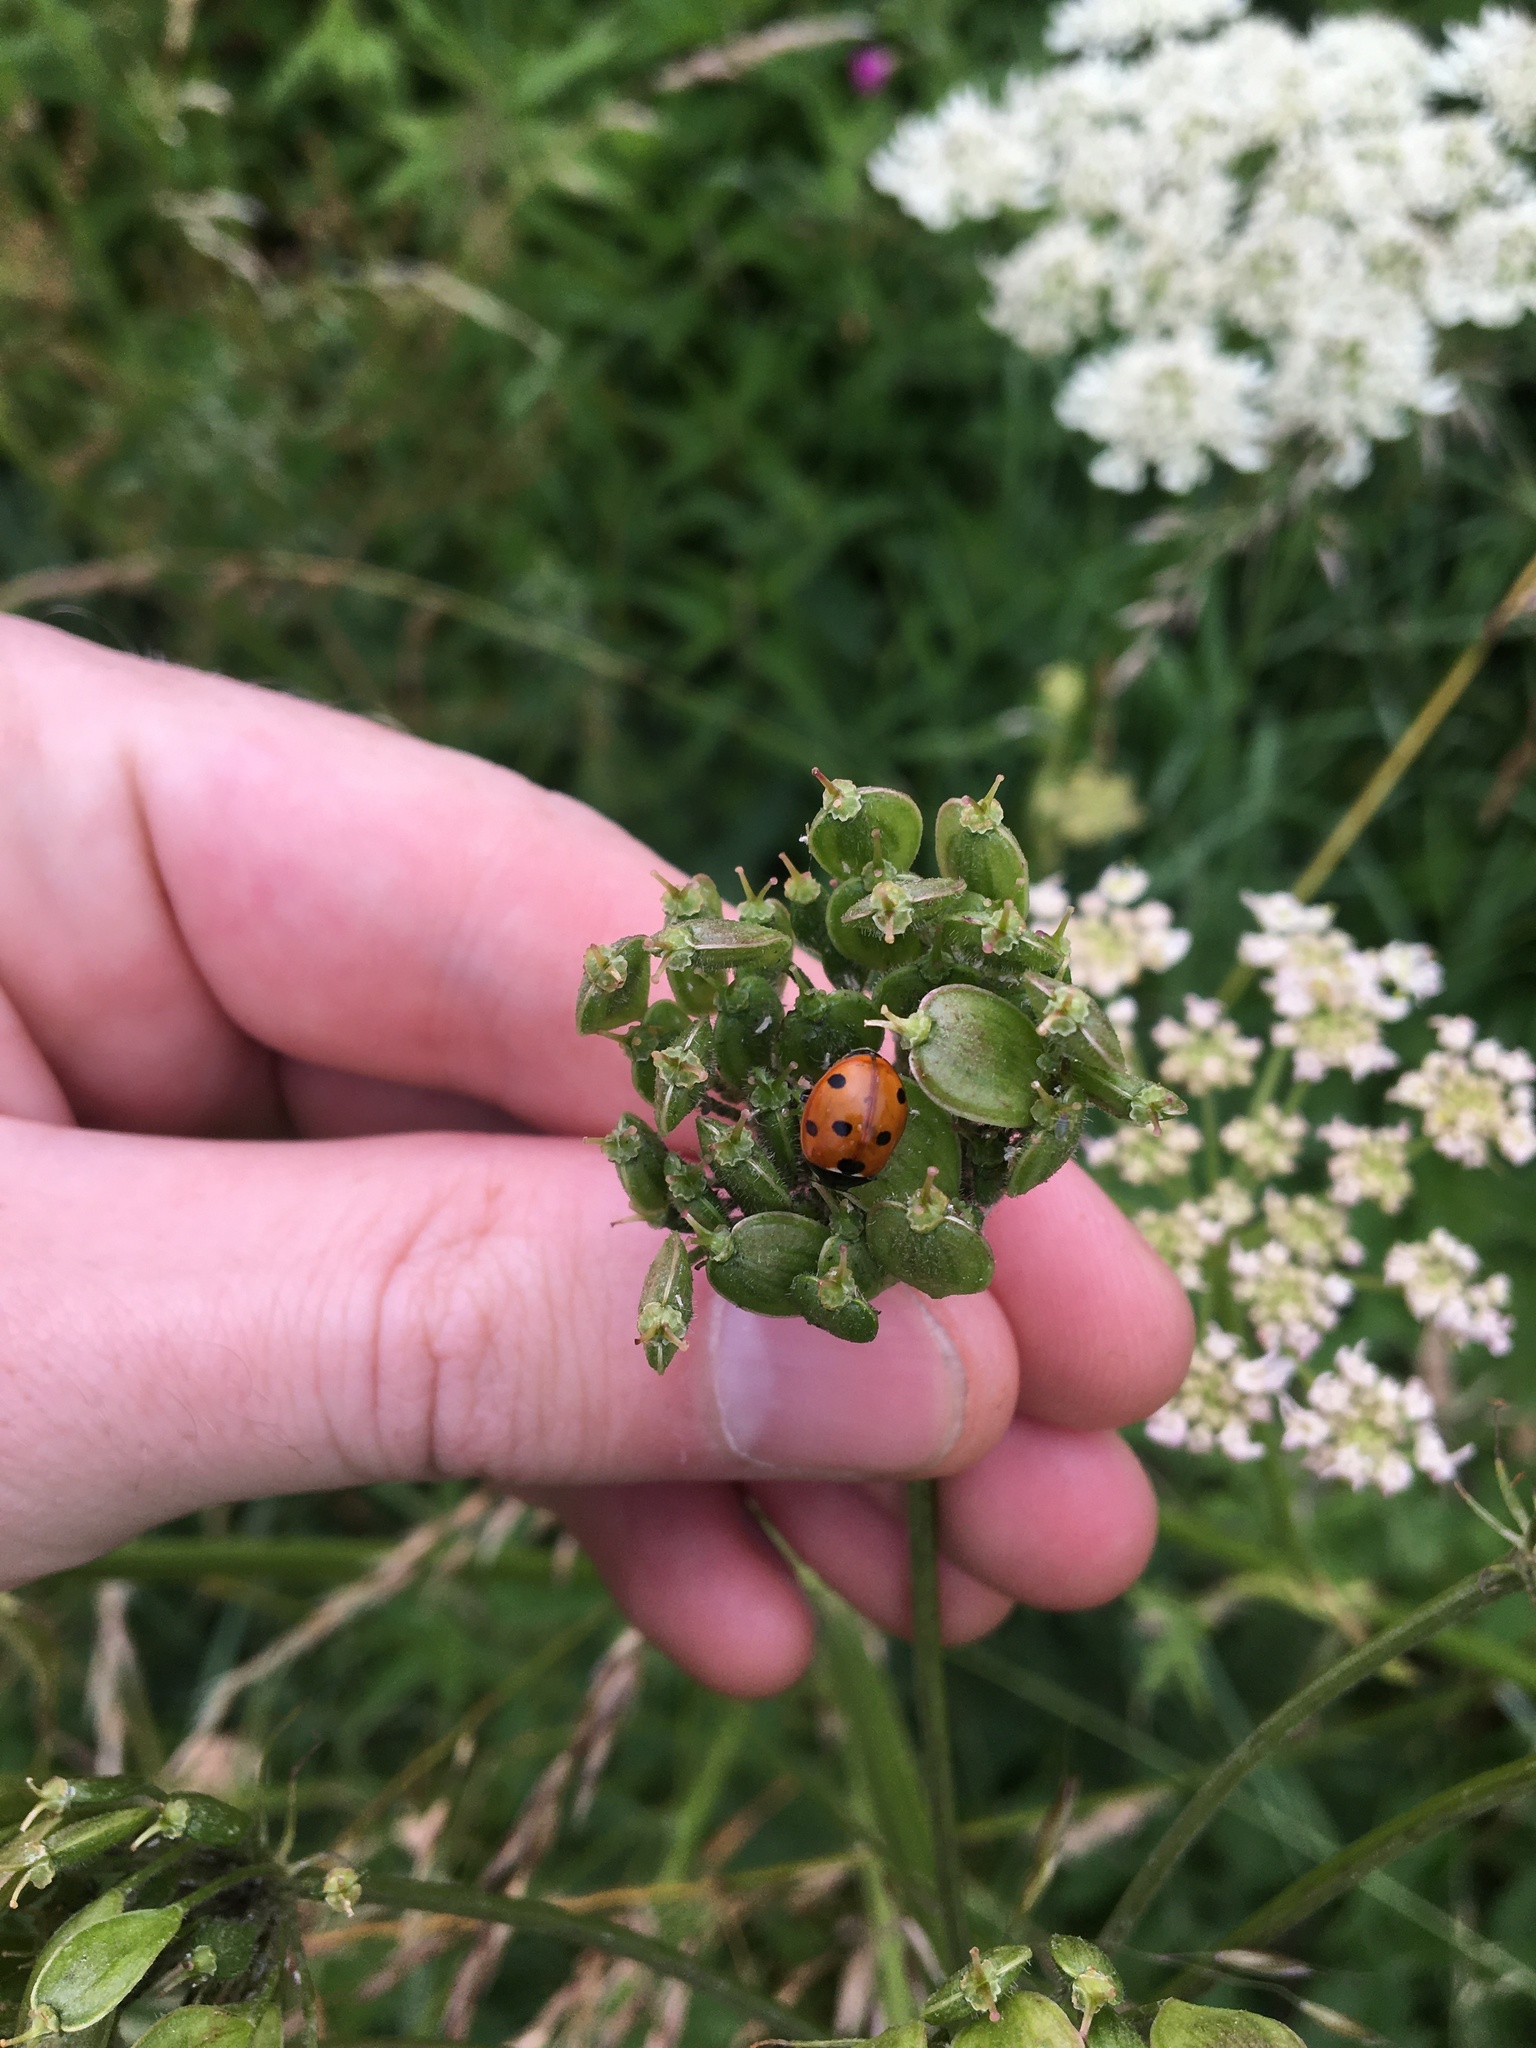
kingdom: Animalia
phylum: Arthropoda
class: Insecta
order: Coleoptera
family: Coccinellidae
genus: Coccinella
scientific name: Coccinella septempunctata
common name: Sevenspotted lady beetle
